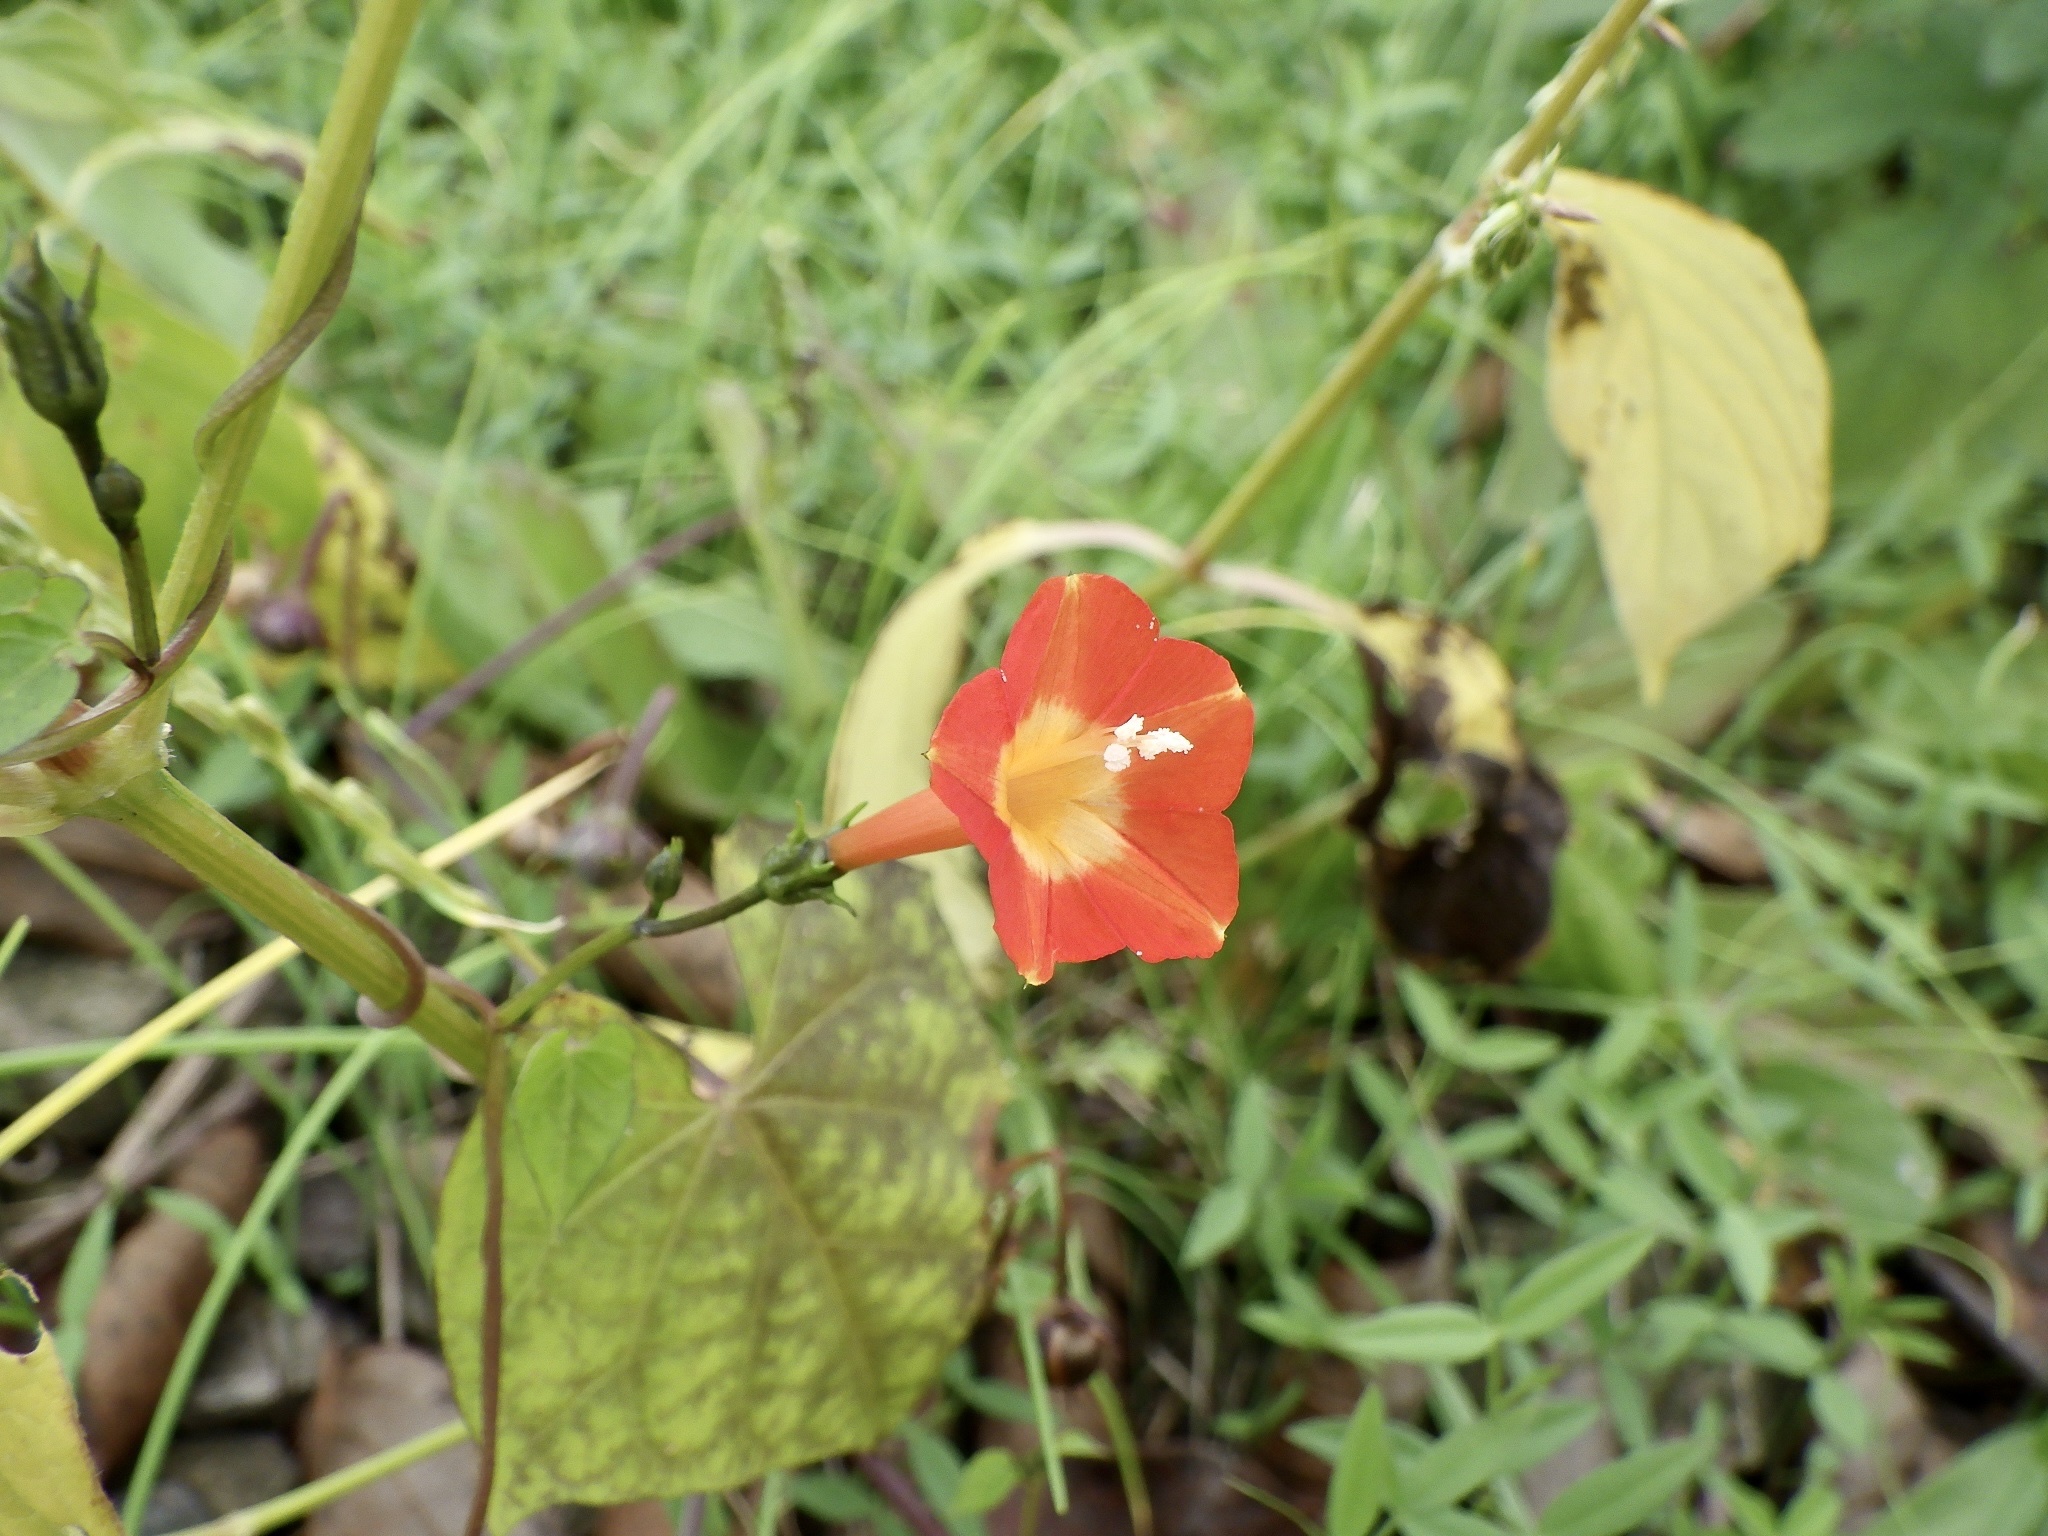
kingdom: Plantae
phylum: Tracheophyta
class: Magnoliopsida
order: Solanales
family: Convolvulaceae
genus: Ipomoea
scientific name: Ipomoea coccinea
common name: Red morning-glory
